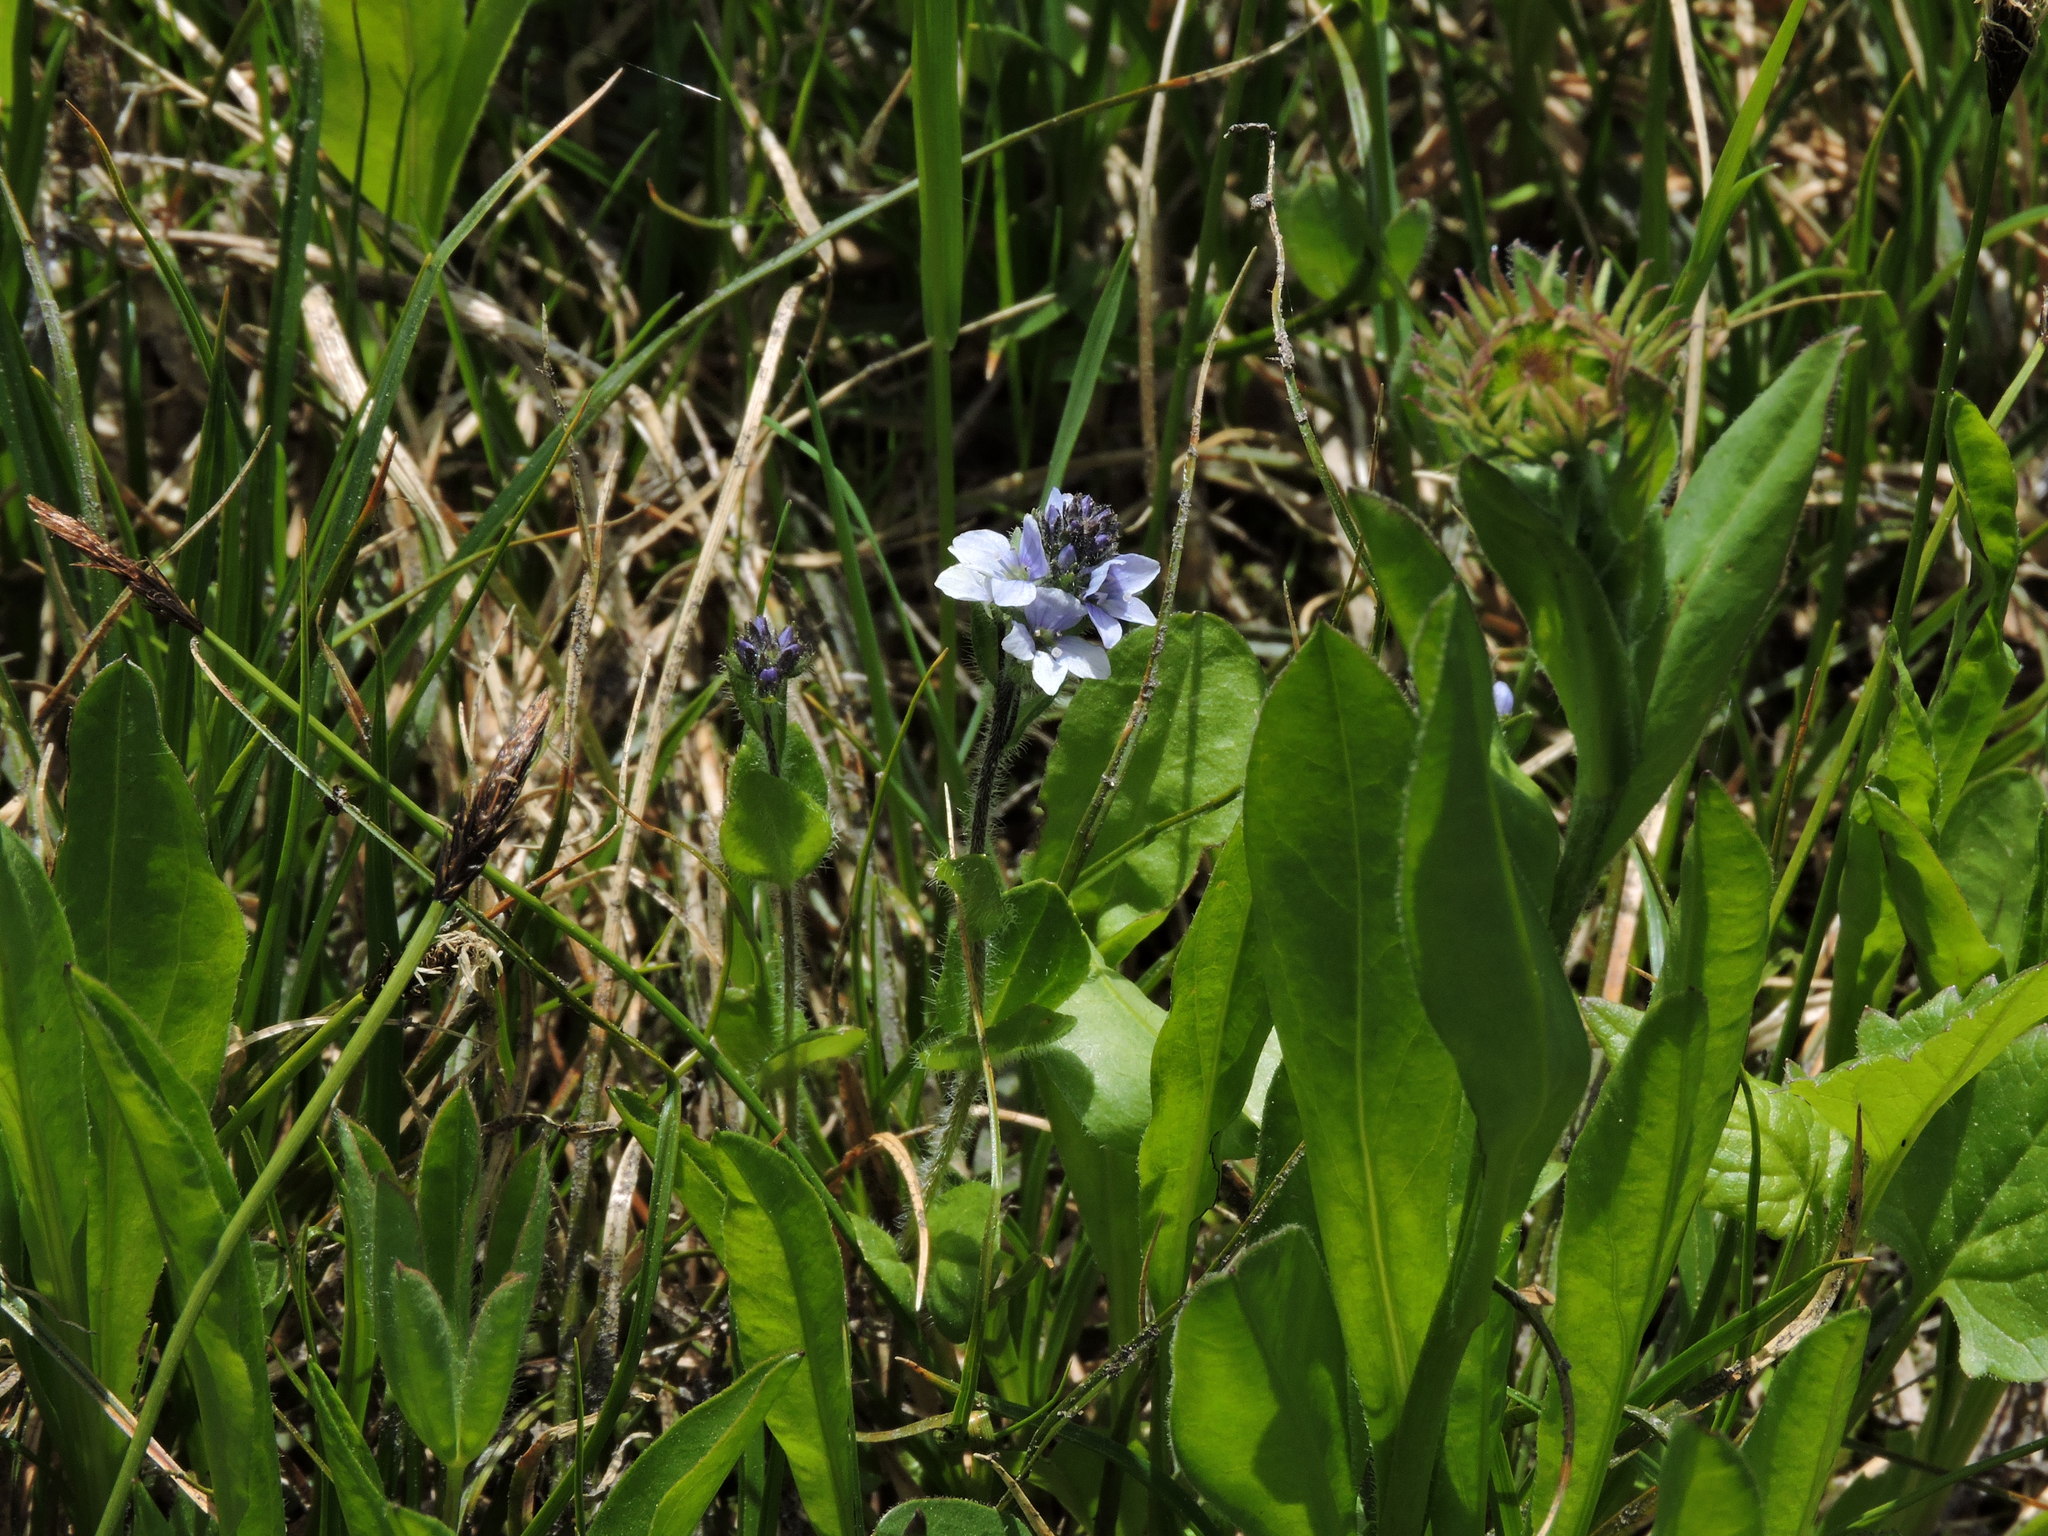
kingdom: Plantae
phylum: Tracheophyta
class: Magnoliopsida
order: Lamiales
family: Plantaginaceae
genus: Veronica
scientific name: Veronica wormskjoldii
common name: American alpine speedwell
